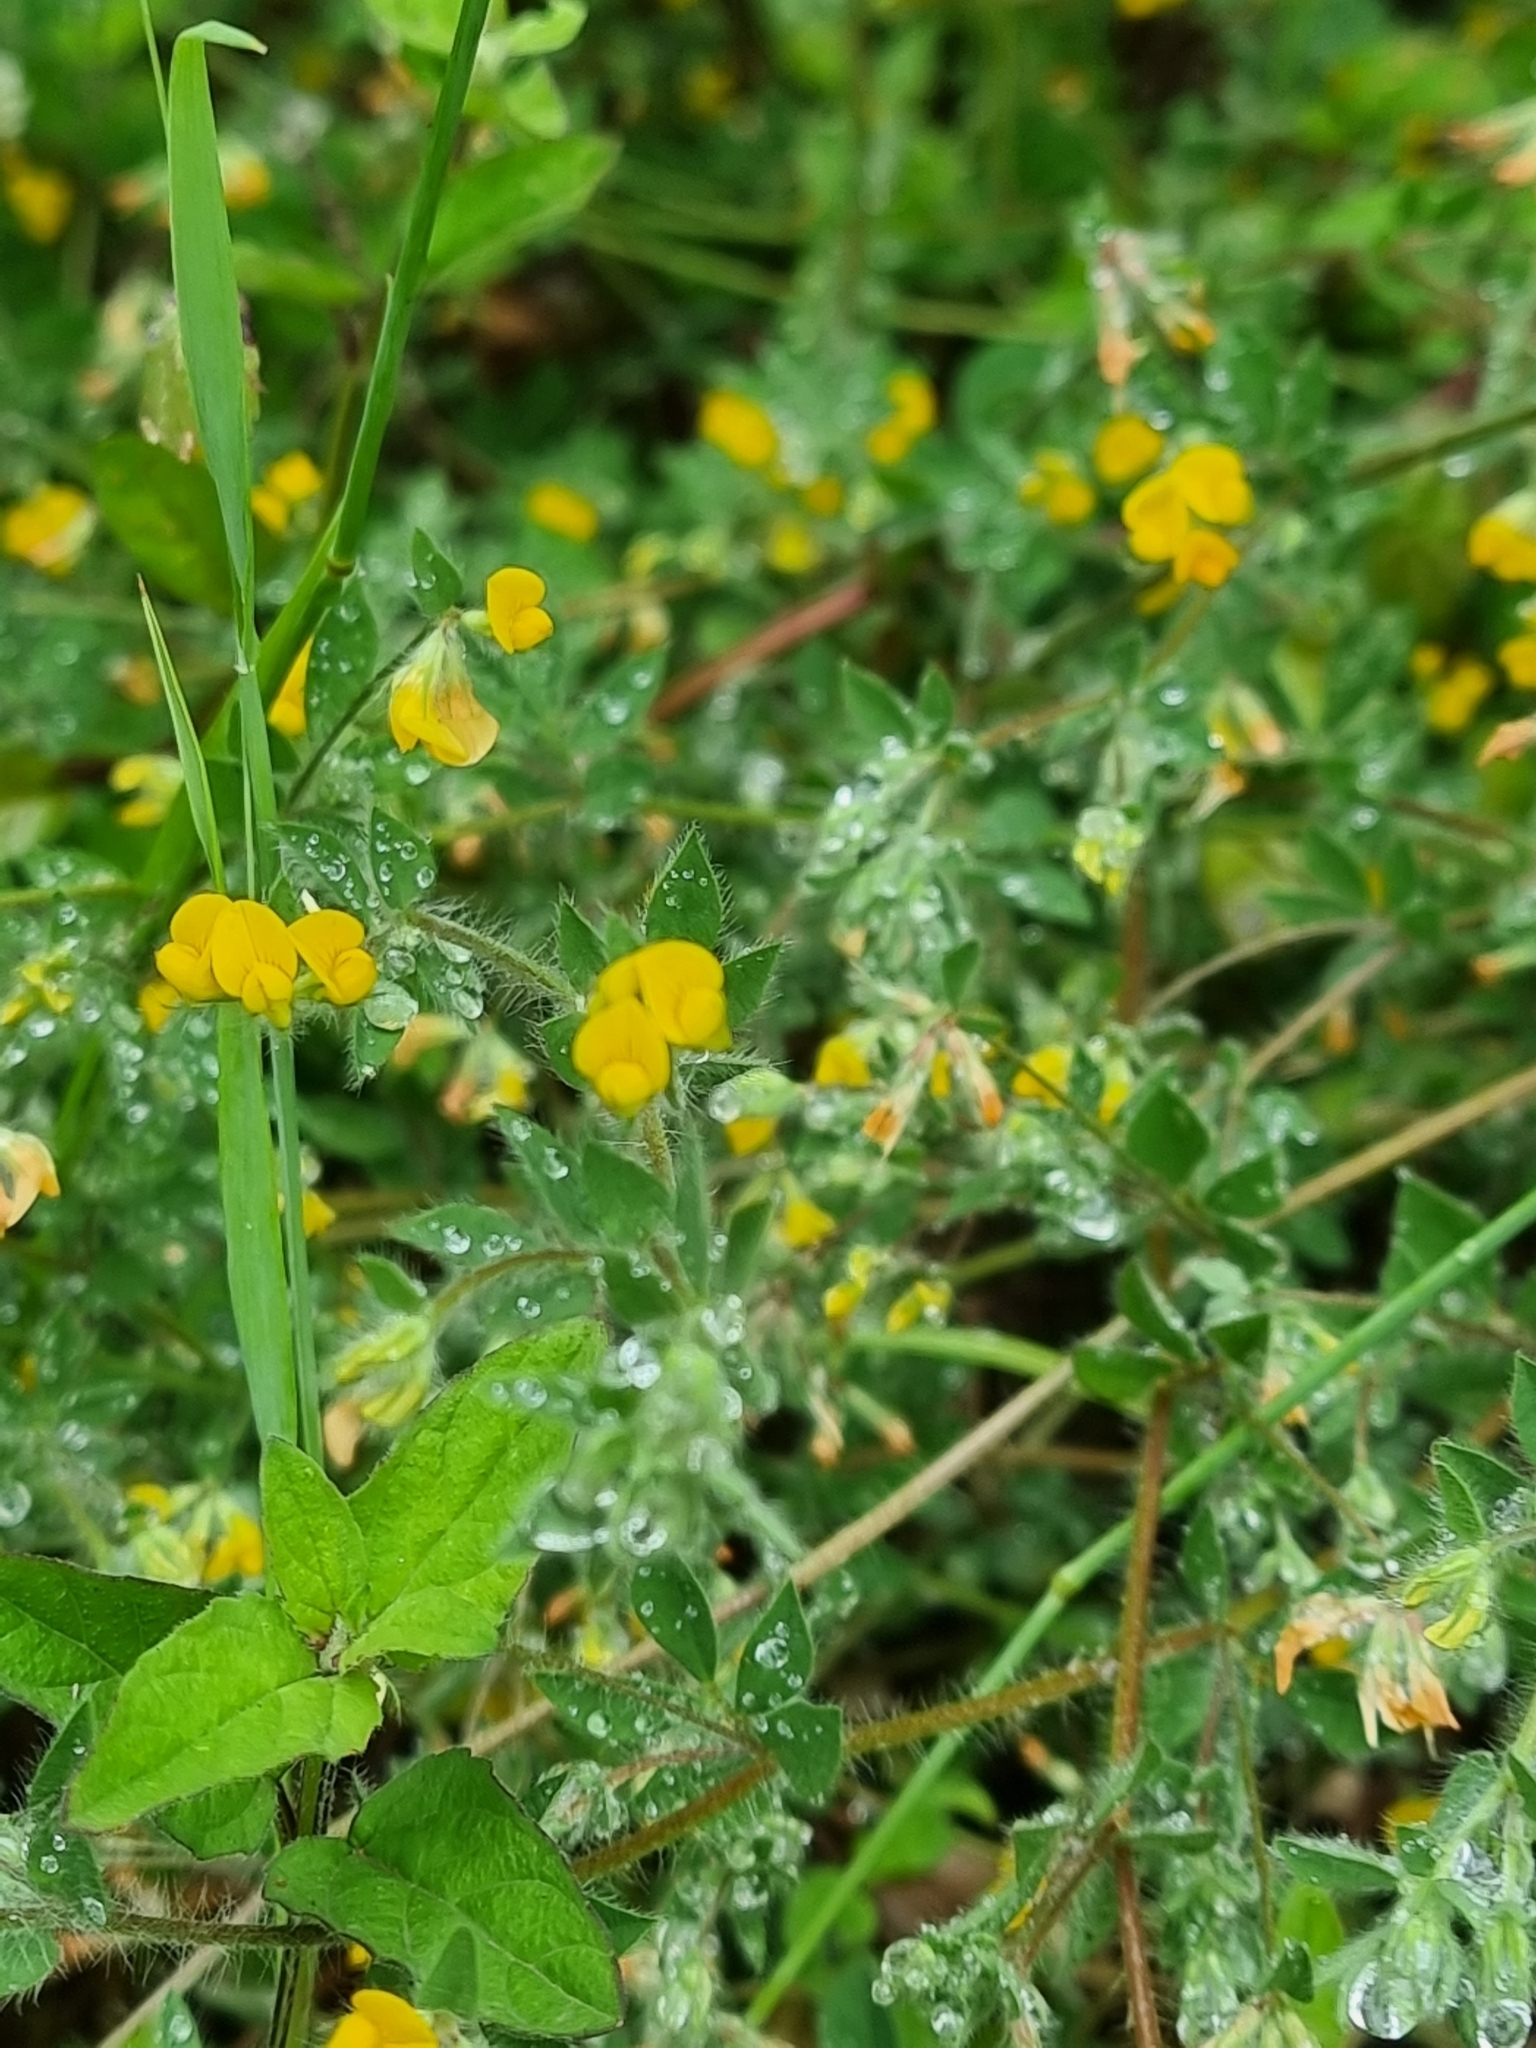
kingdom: Plantae
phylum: Tracheophyta
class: Magnoliopsida
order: Fabales
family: Fabaceae
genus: Lotus
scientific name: Lotus hispidus
